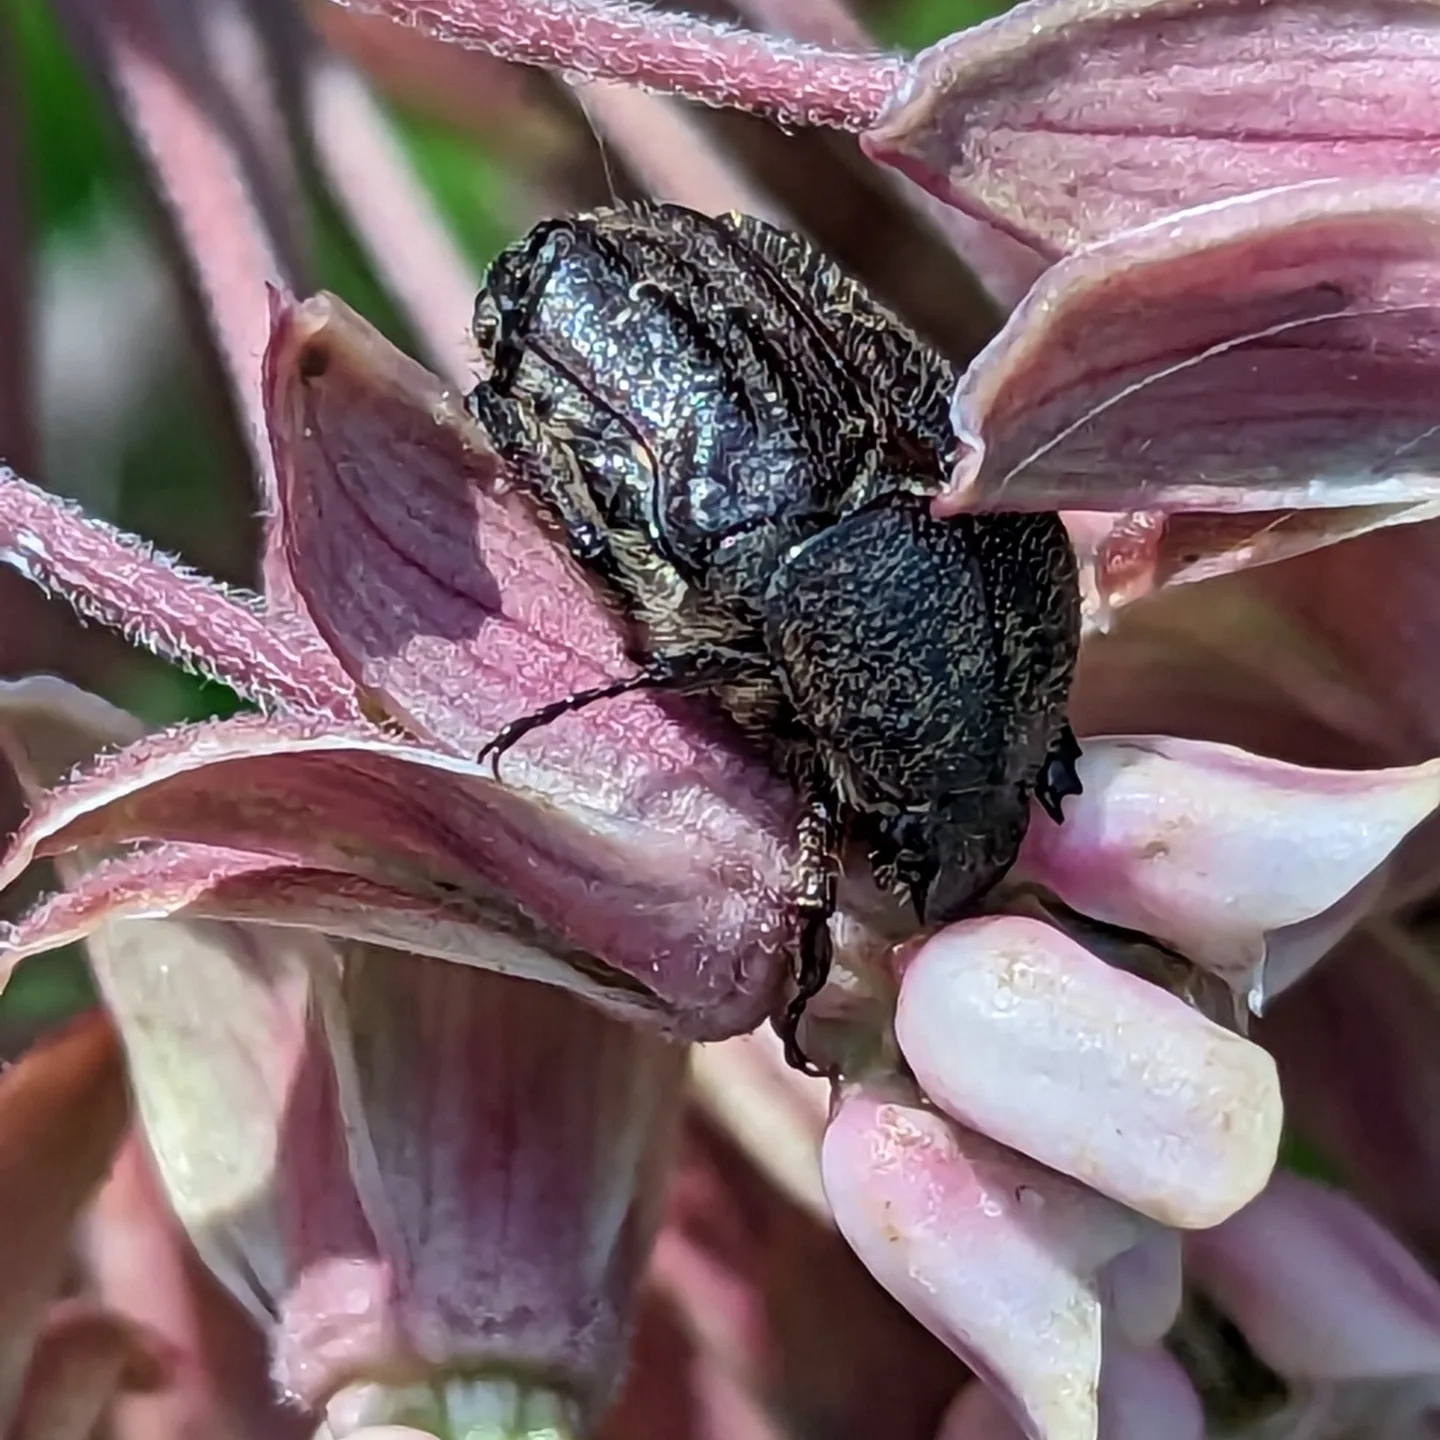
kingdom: Animalia
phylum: Arthropoda
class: Insecta
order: Coleoptera
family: Scarabaeidae
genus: Euphoria
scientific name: Euphoria sepulcralis
